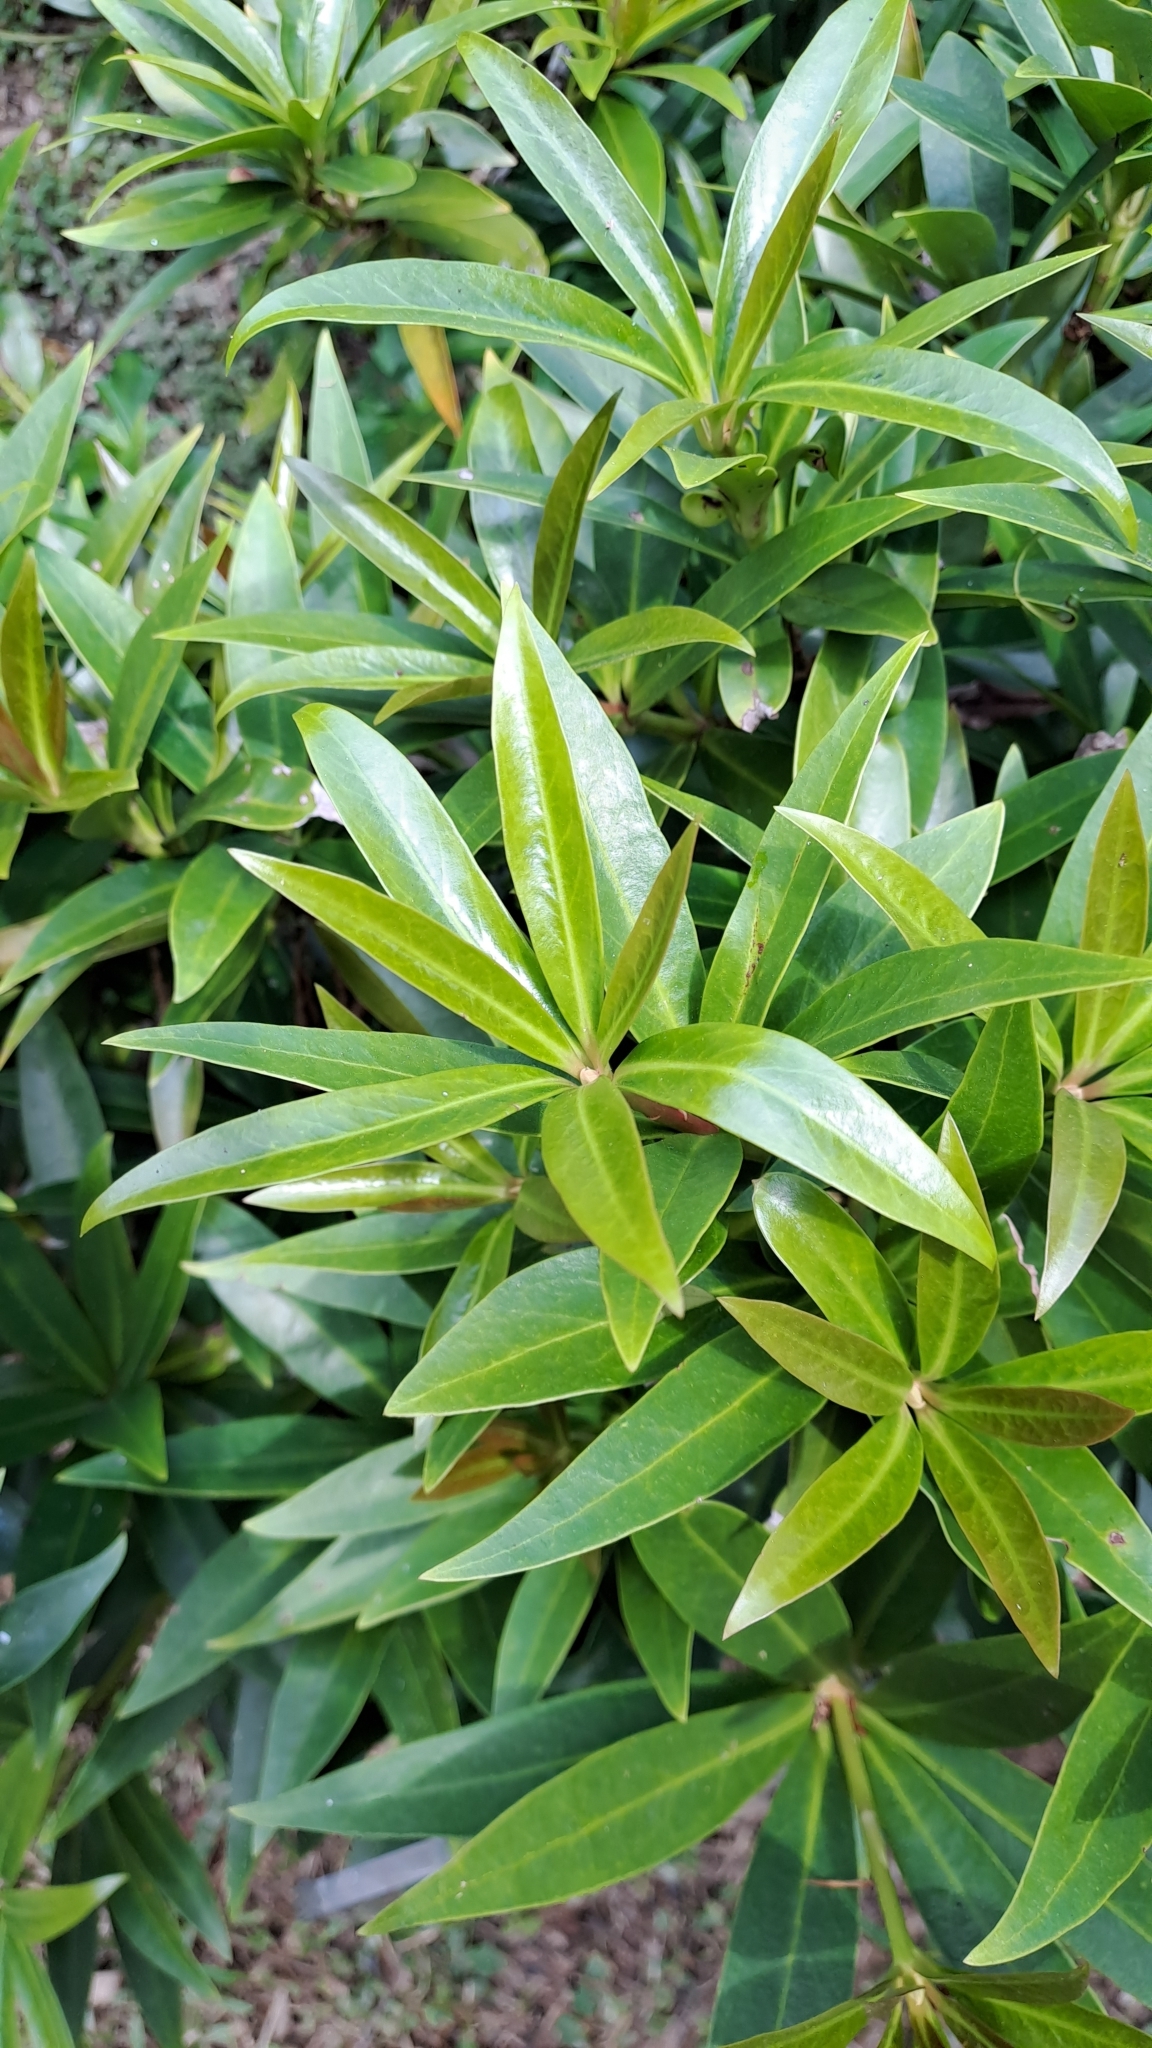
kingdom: Plantae
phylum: Tracheophyta
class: Magnoliopsida
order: Austrobaileyales
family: Schisandraceae
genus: Illicium
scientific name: Illicium dunnianum
